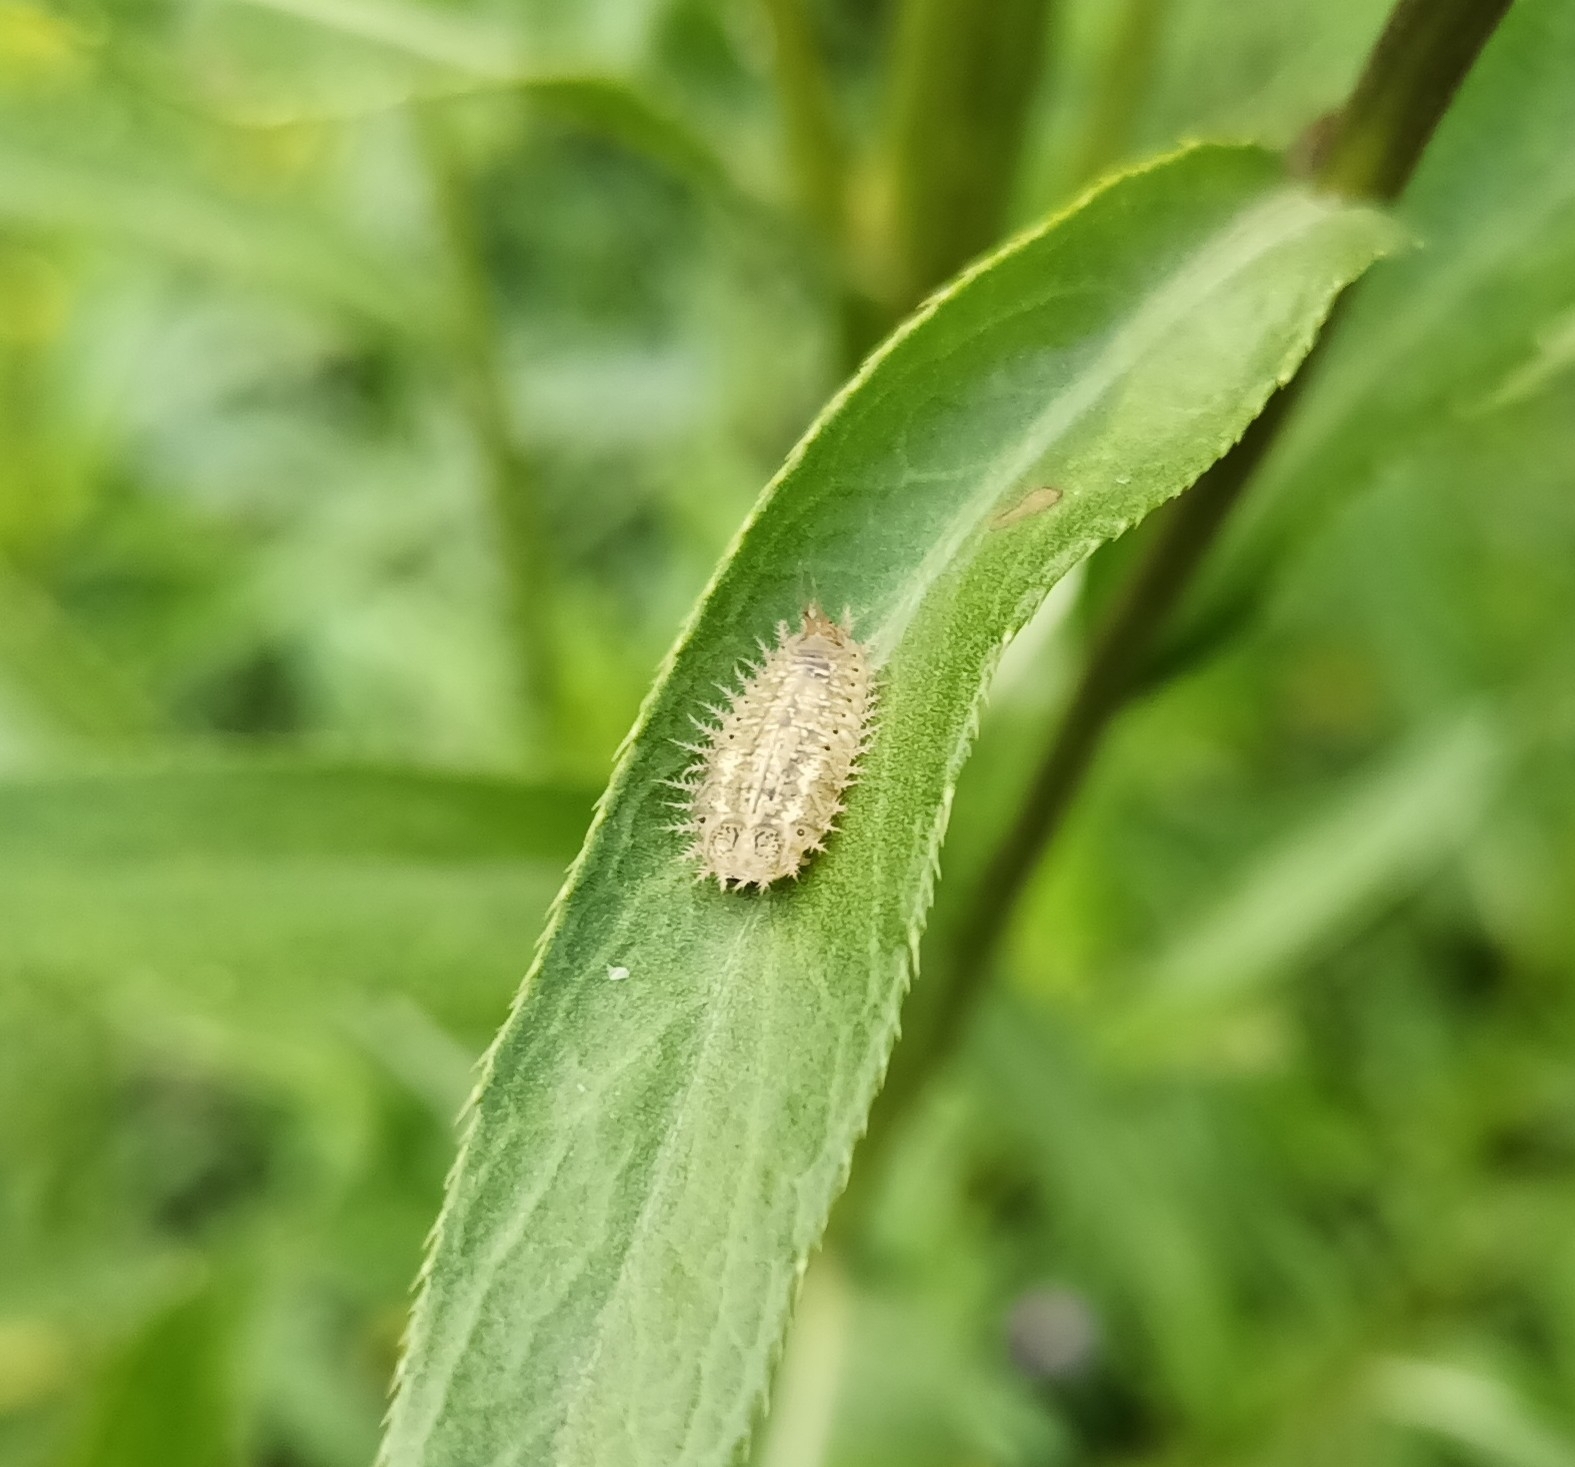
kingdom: Animalia
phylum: Arthropoda
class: Insecta
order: Coleoptera
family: Chrysomelidae
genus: Cassida
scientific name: Cassida rubiginosa
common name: Thistle tortoise beetle
